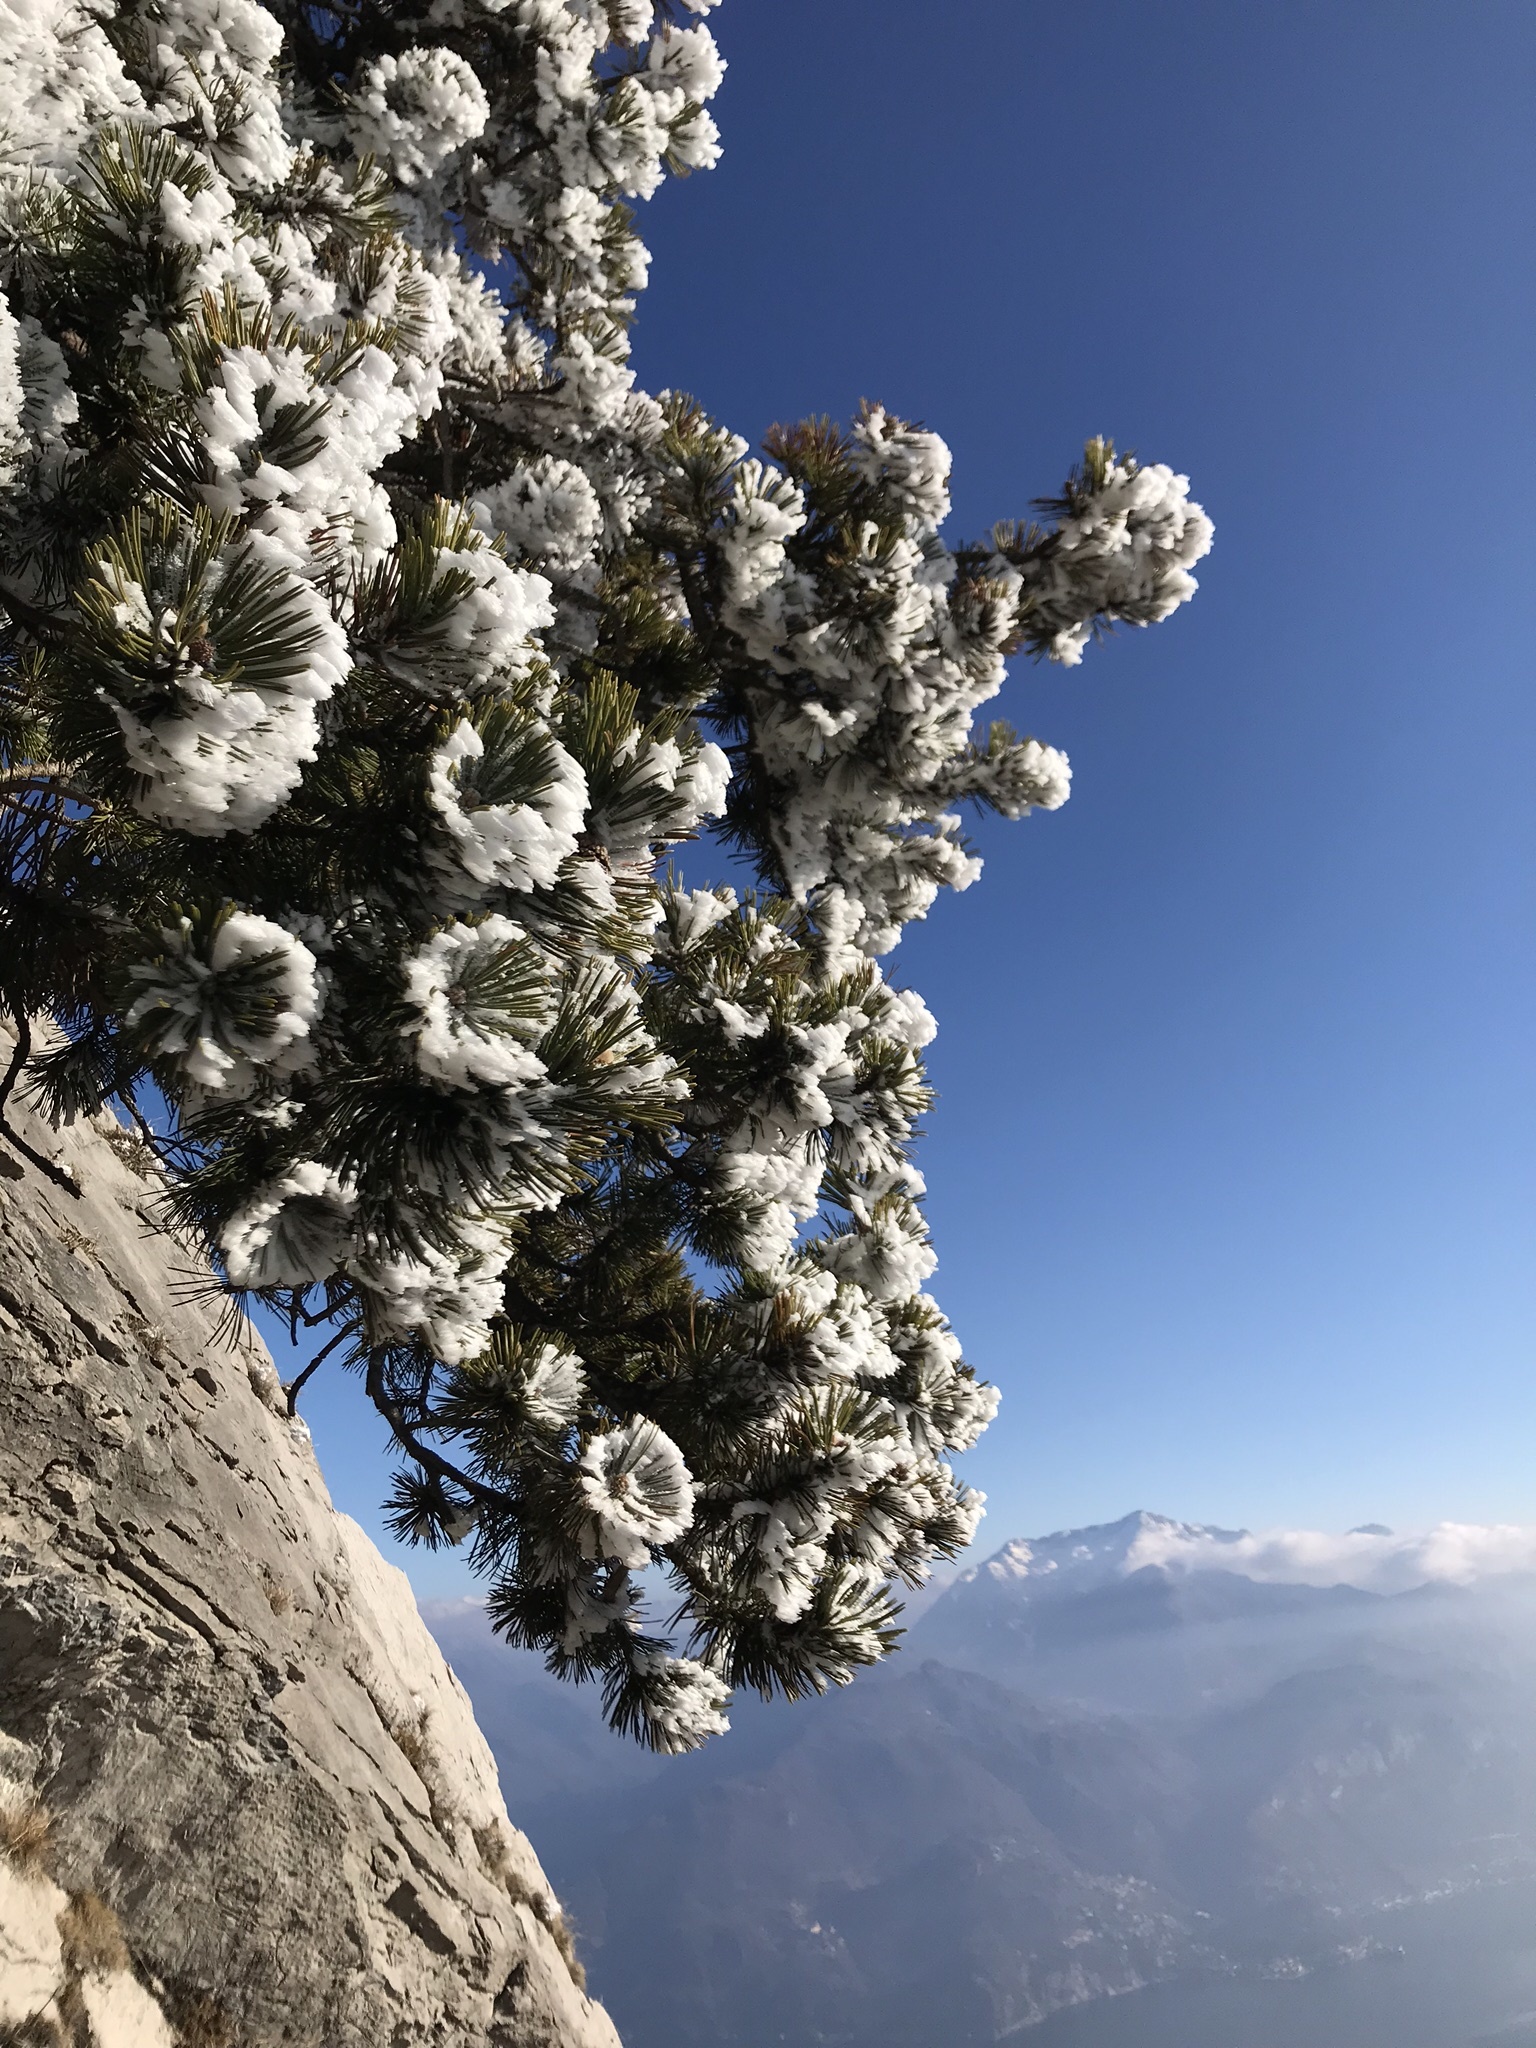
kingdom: Plantae
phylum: Tracheophyta
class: Pinopsida
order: Pinales
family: Pinaceae
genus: Pinus
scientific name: Pinus mugo
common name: Mugo pine
